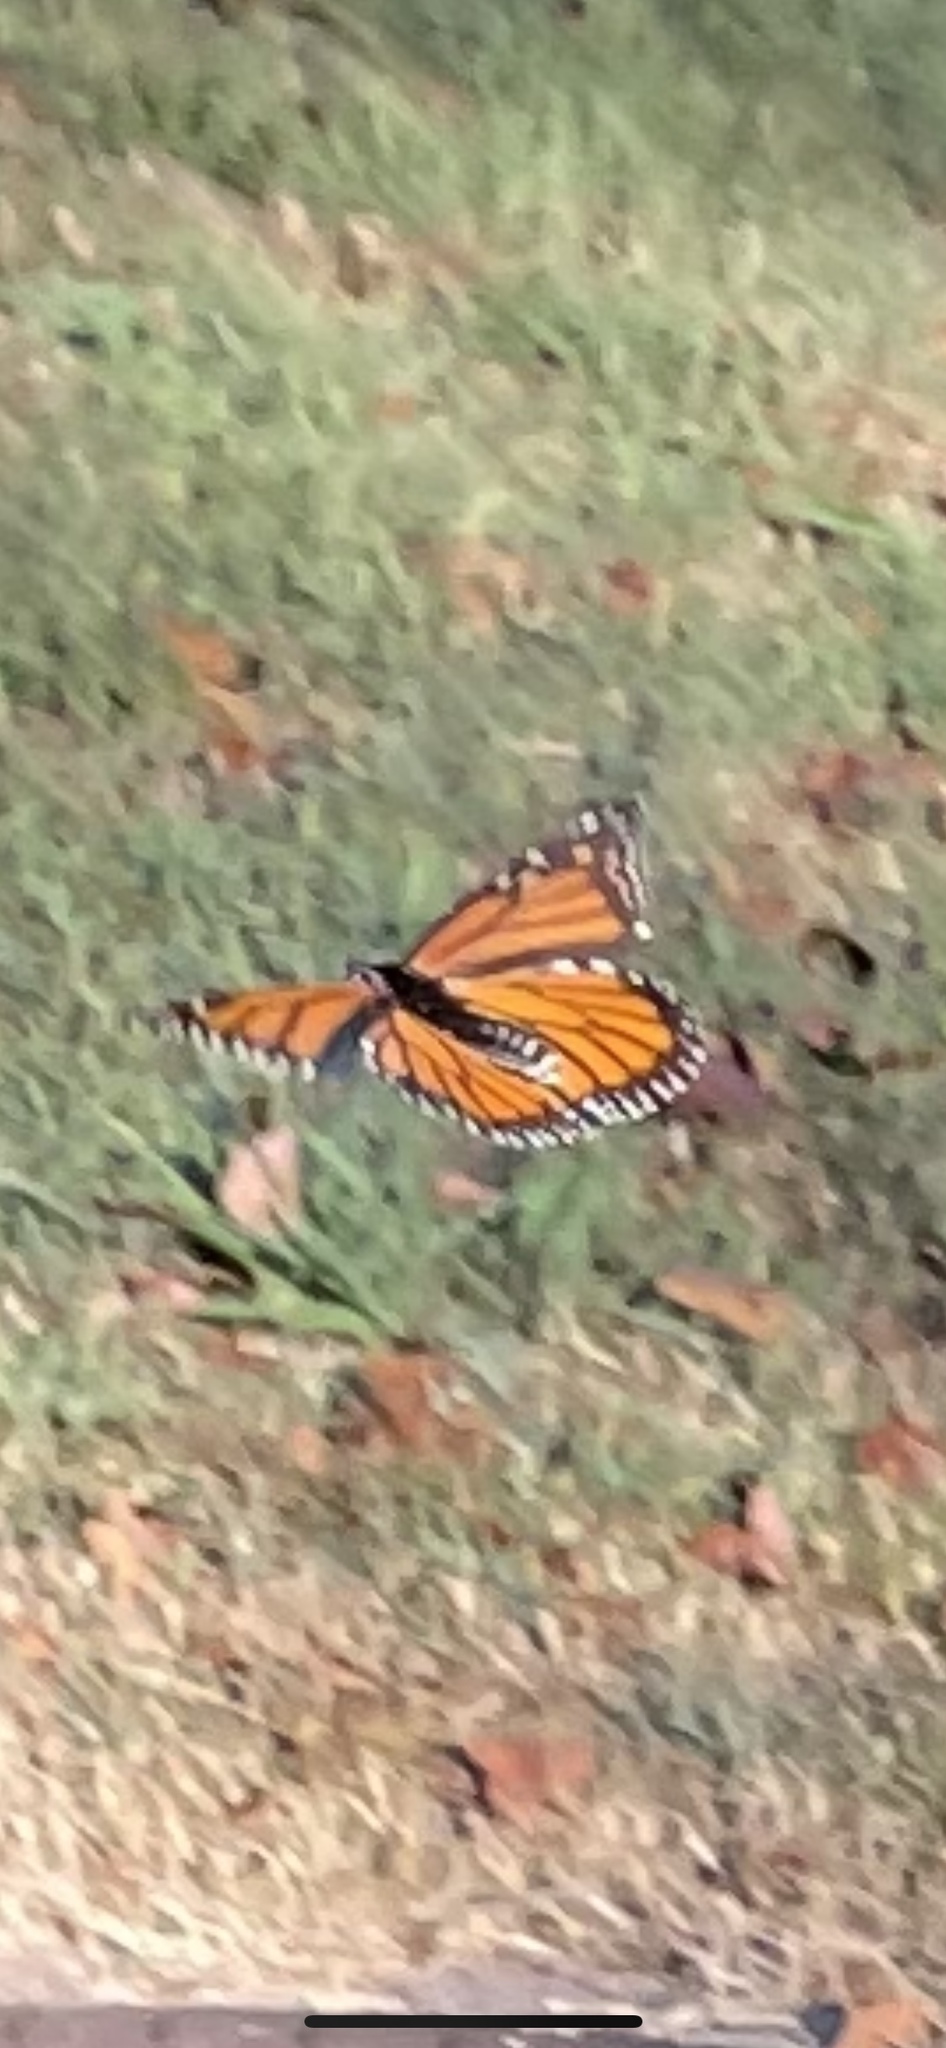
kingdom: Animalia
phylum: Arthropoda
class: Insecta
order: Lepidoptera
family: Nymphalidae
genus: Danaus
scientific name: Danaus plexippus
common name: Monarch
